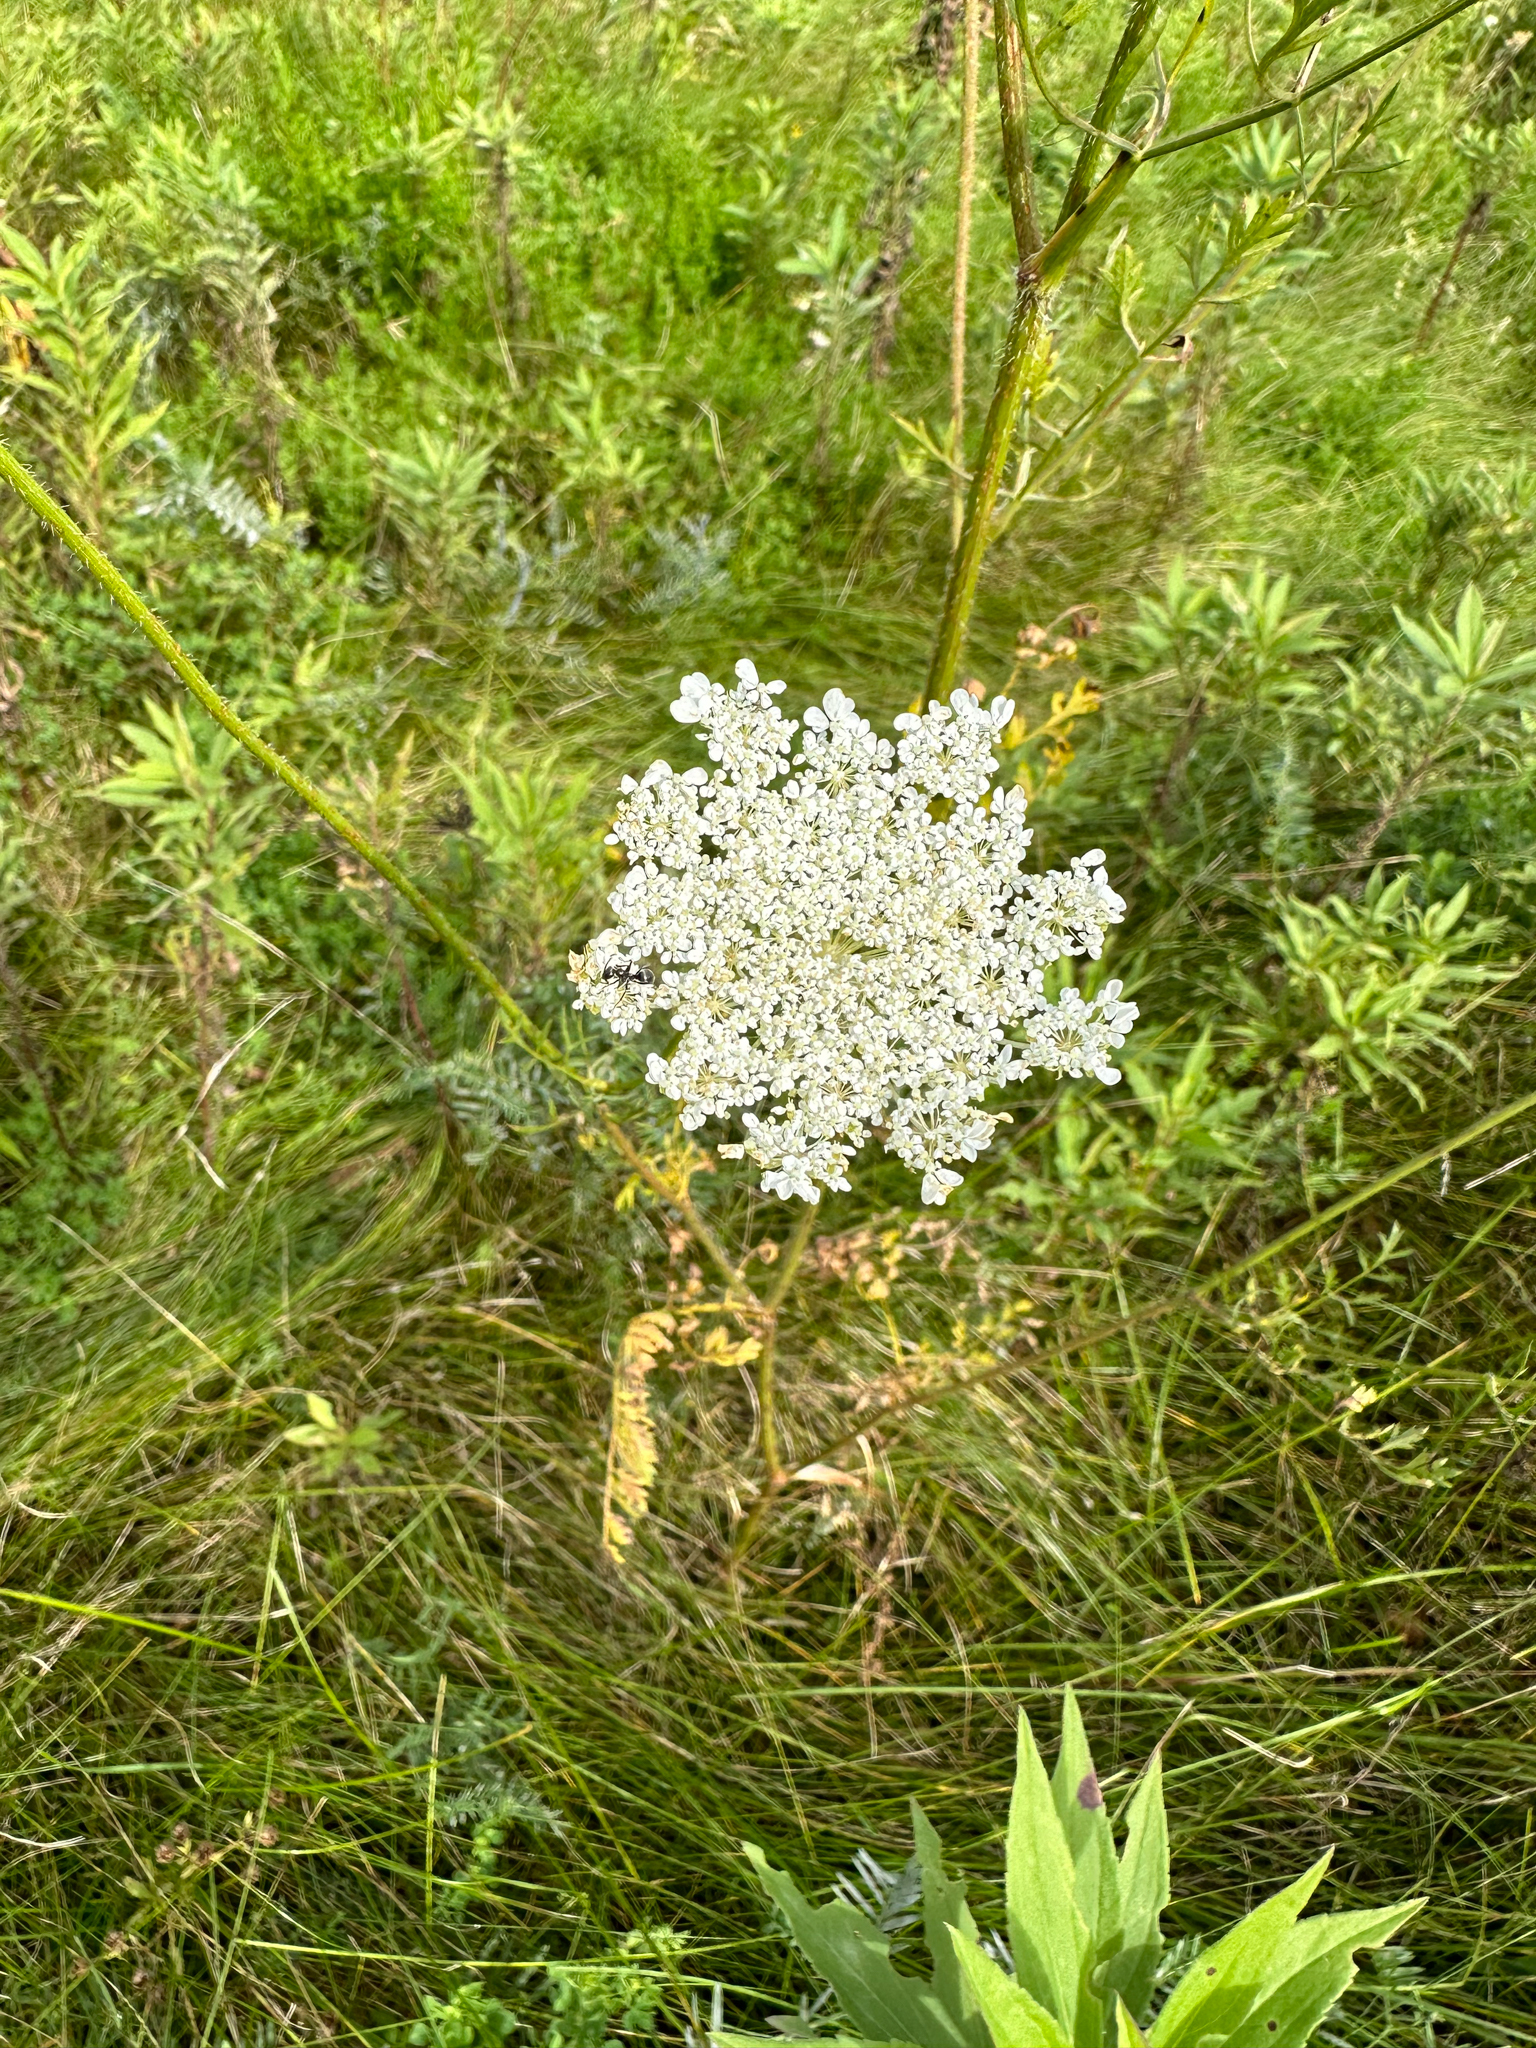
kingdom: Plantae
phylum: Tracheophyta
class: Magnoliopsida
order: Apiales
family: Apiaceae
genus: Daucus
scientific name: Daucus carota
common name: Wild carrot
